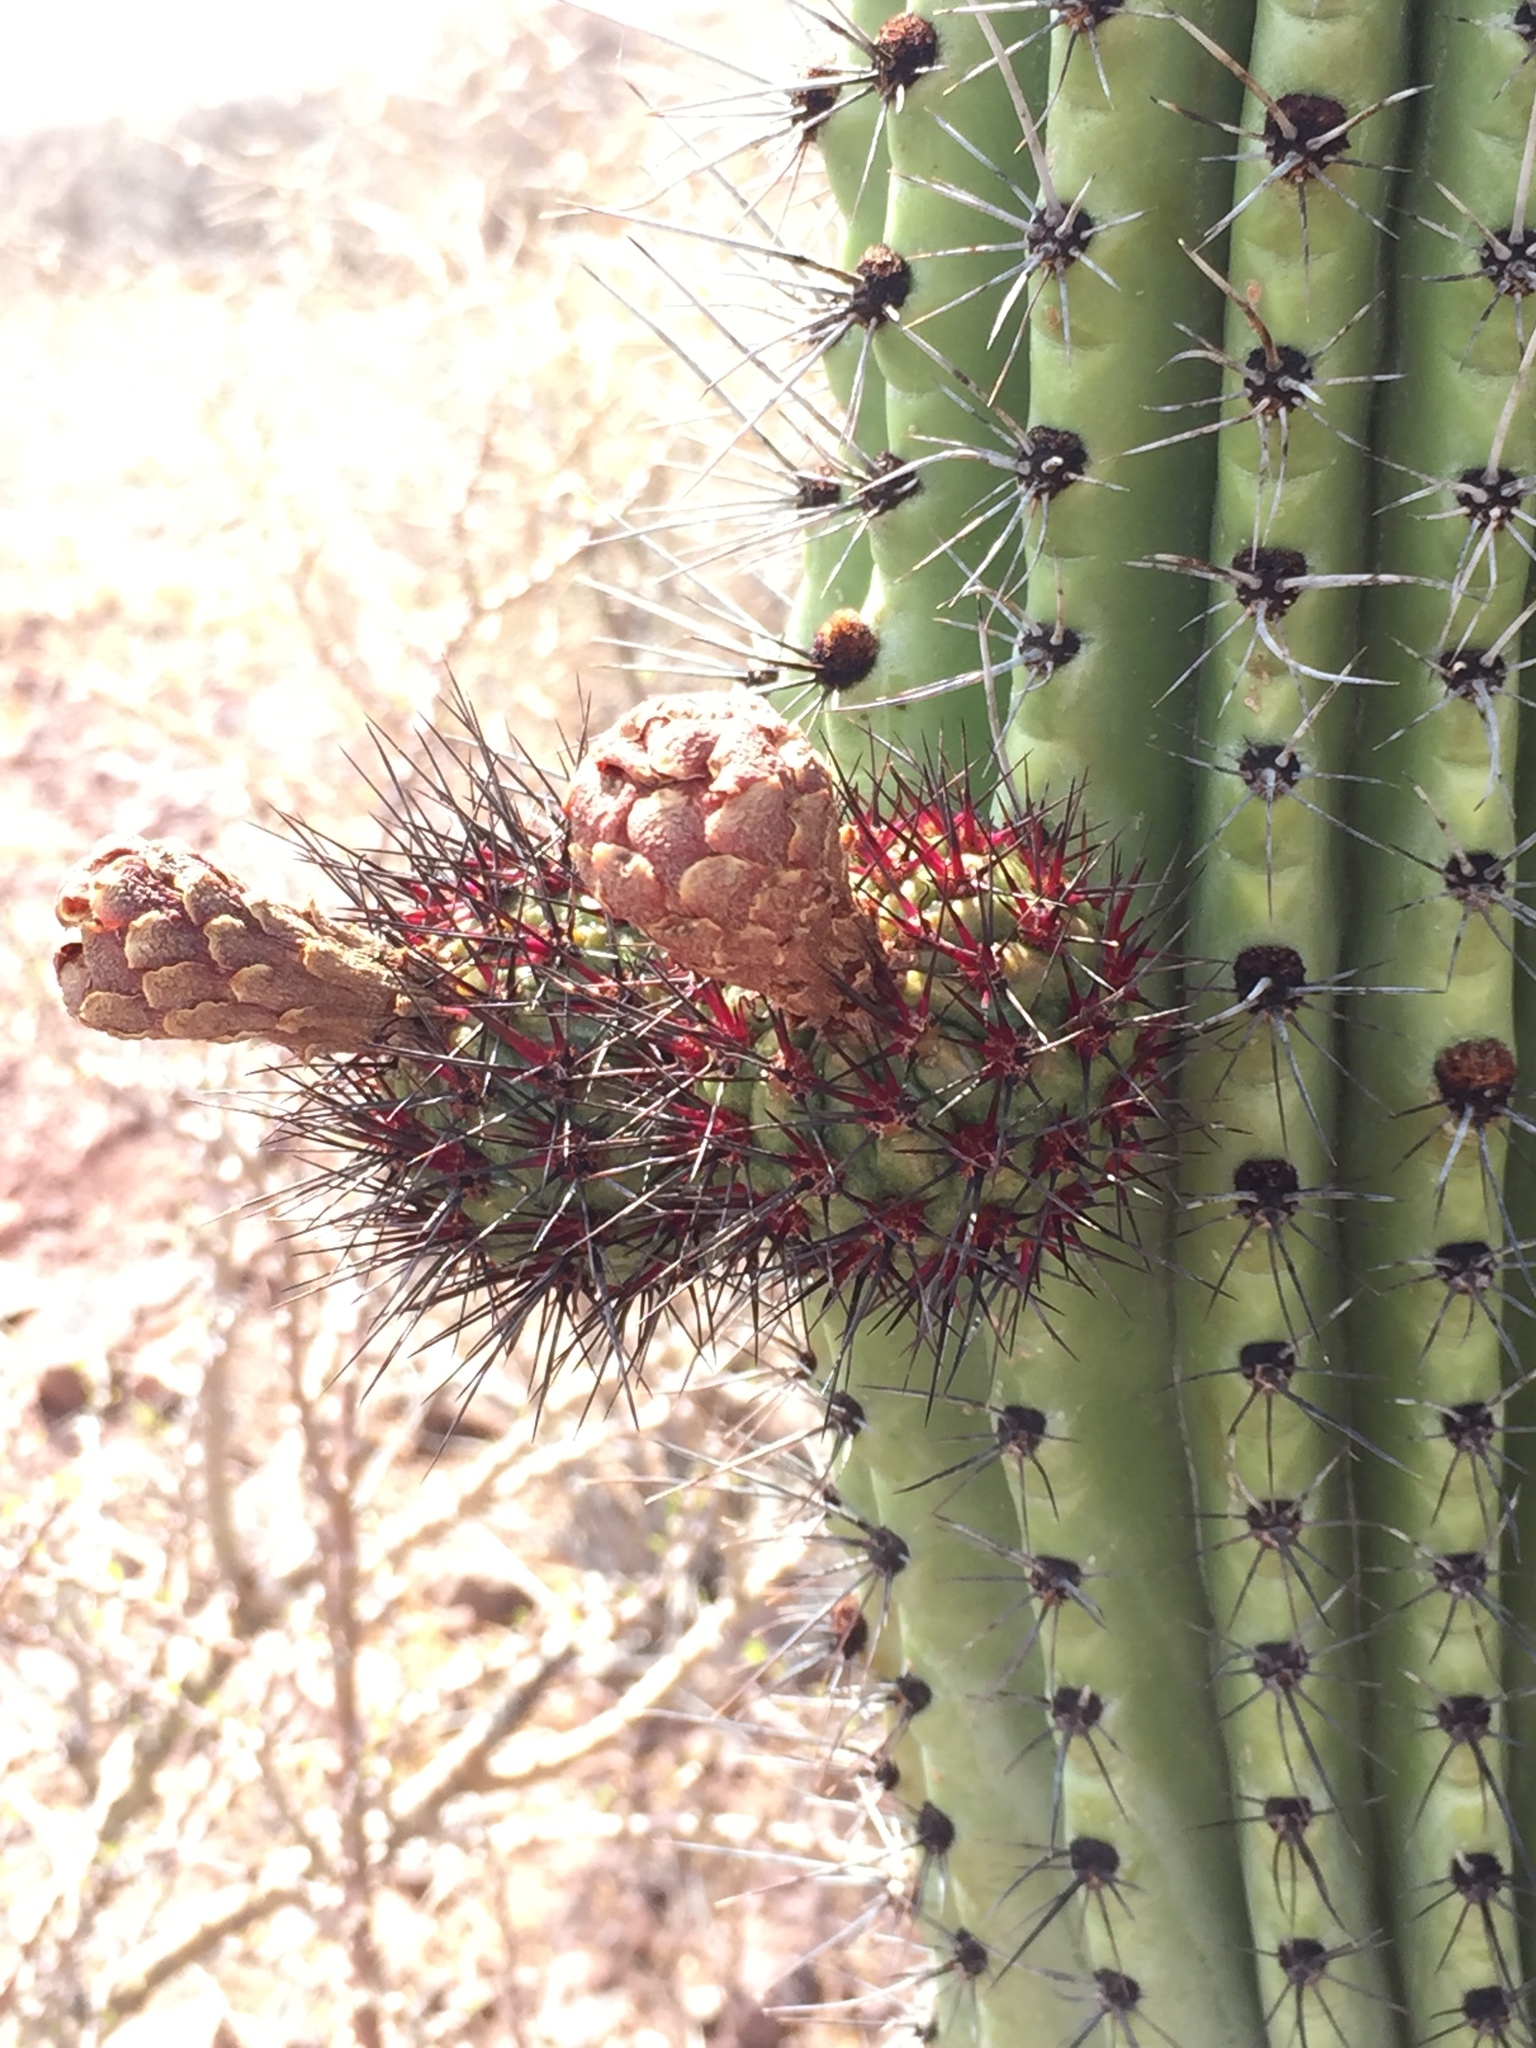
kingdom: Plantae
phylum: Tracheophyta
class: Magnoliopsida
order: Caryophyllales
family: Cactaceae
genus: Stenocereus
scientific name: Stenocereus thurberi
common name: Organ pipe cactus
